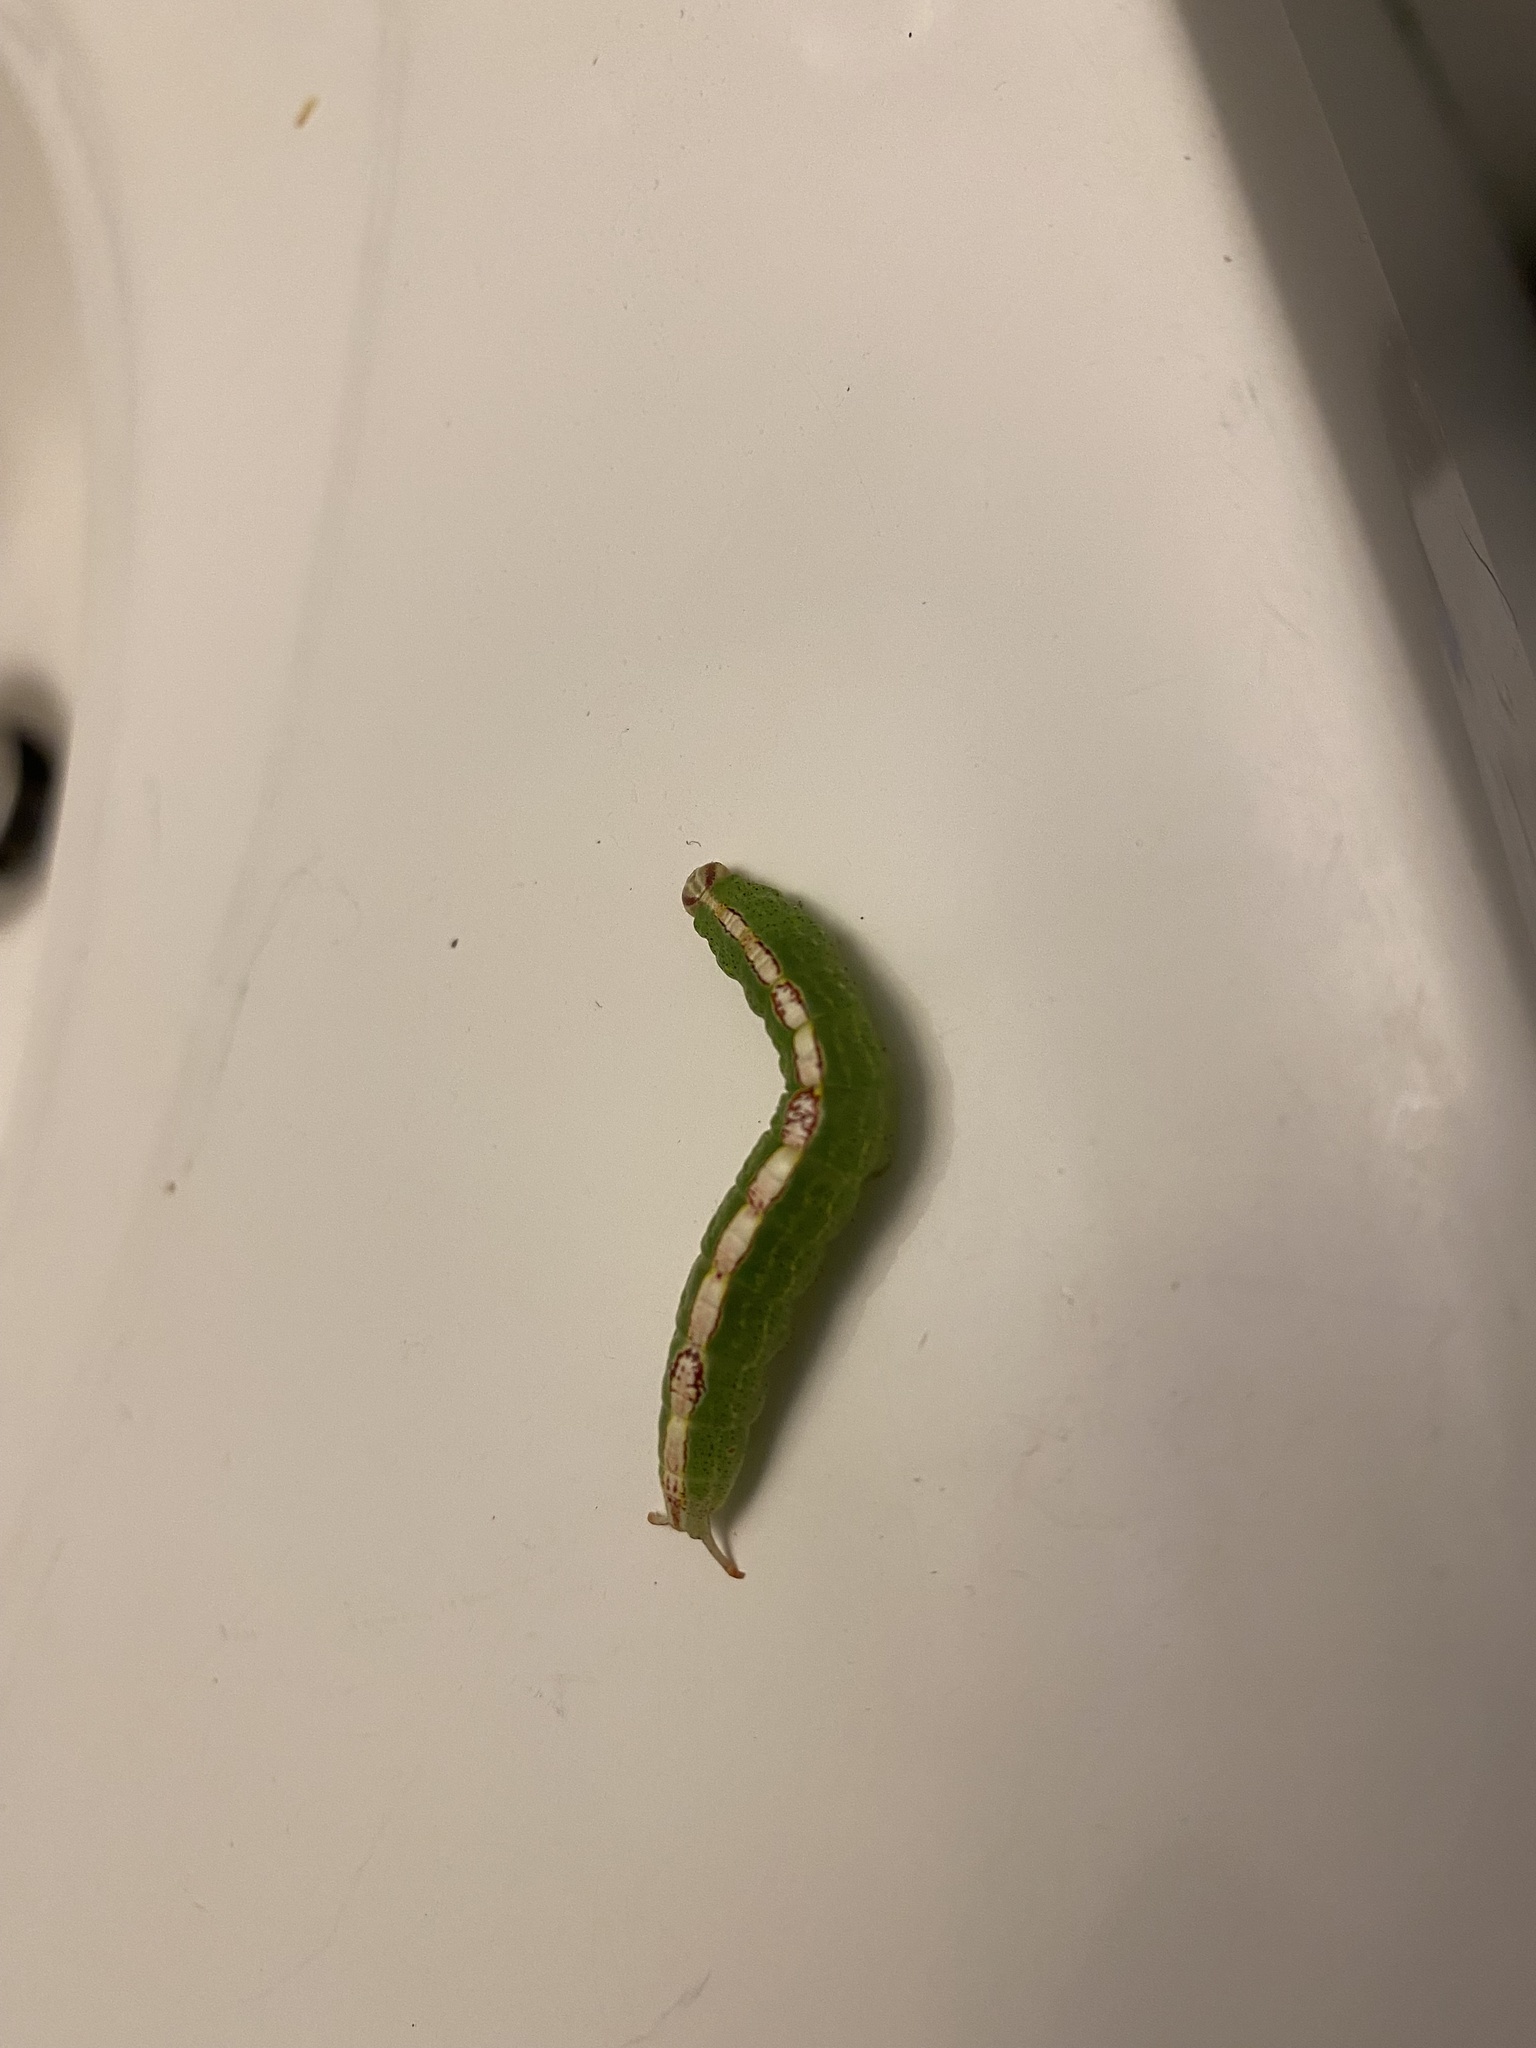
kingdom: Animalia
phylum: Arthropoda
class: Insecta
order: Lepidoptera
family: Notodontidae
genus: Misogada
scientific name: Misogada unicolor
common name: Drab prominent
